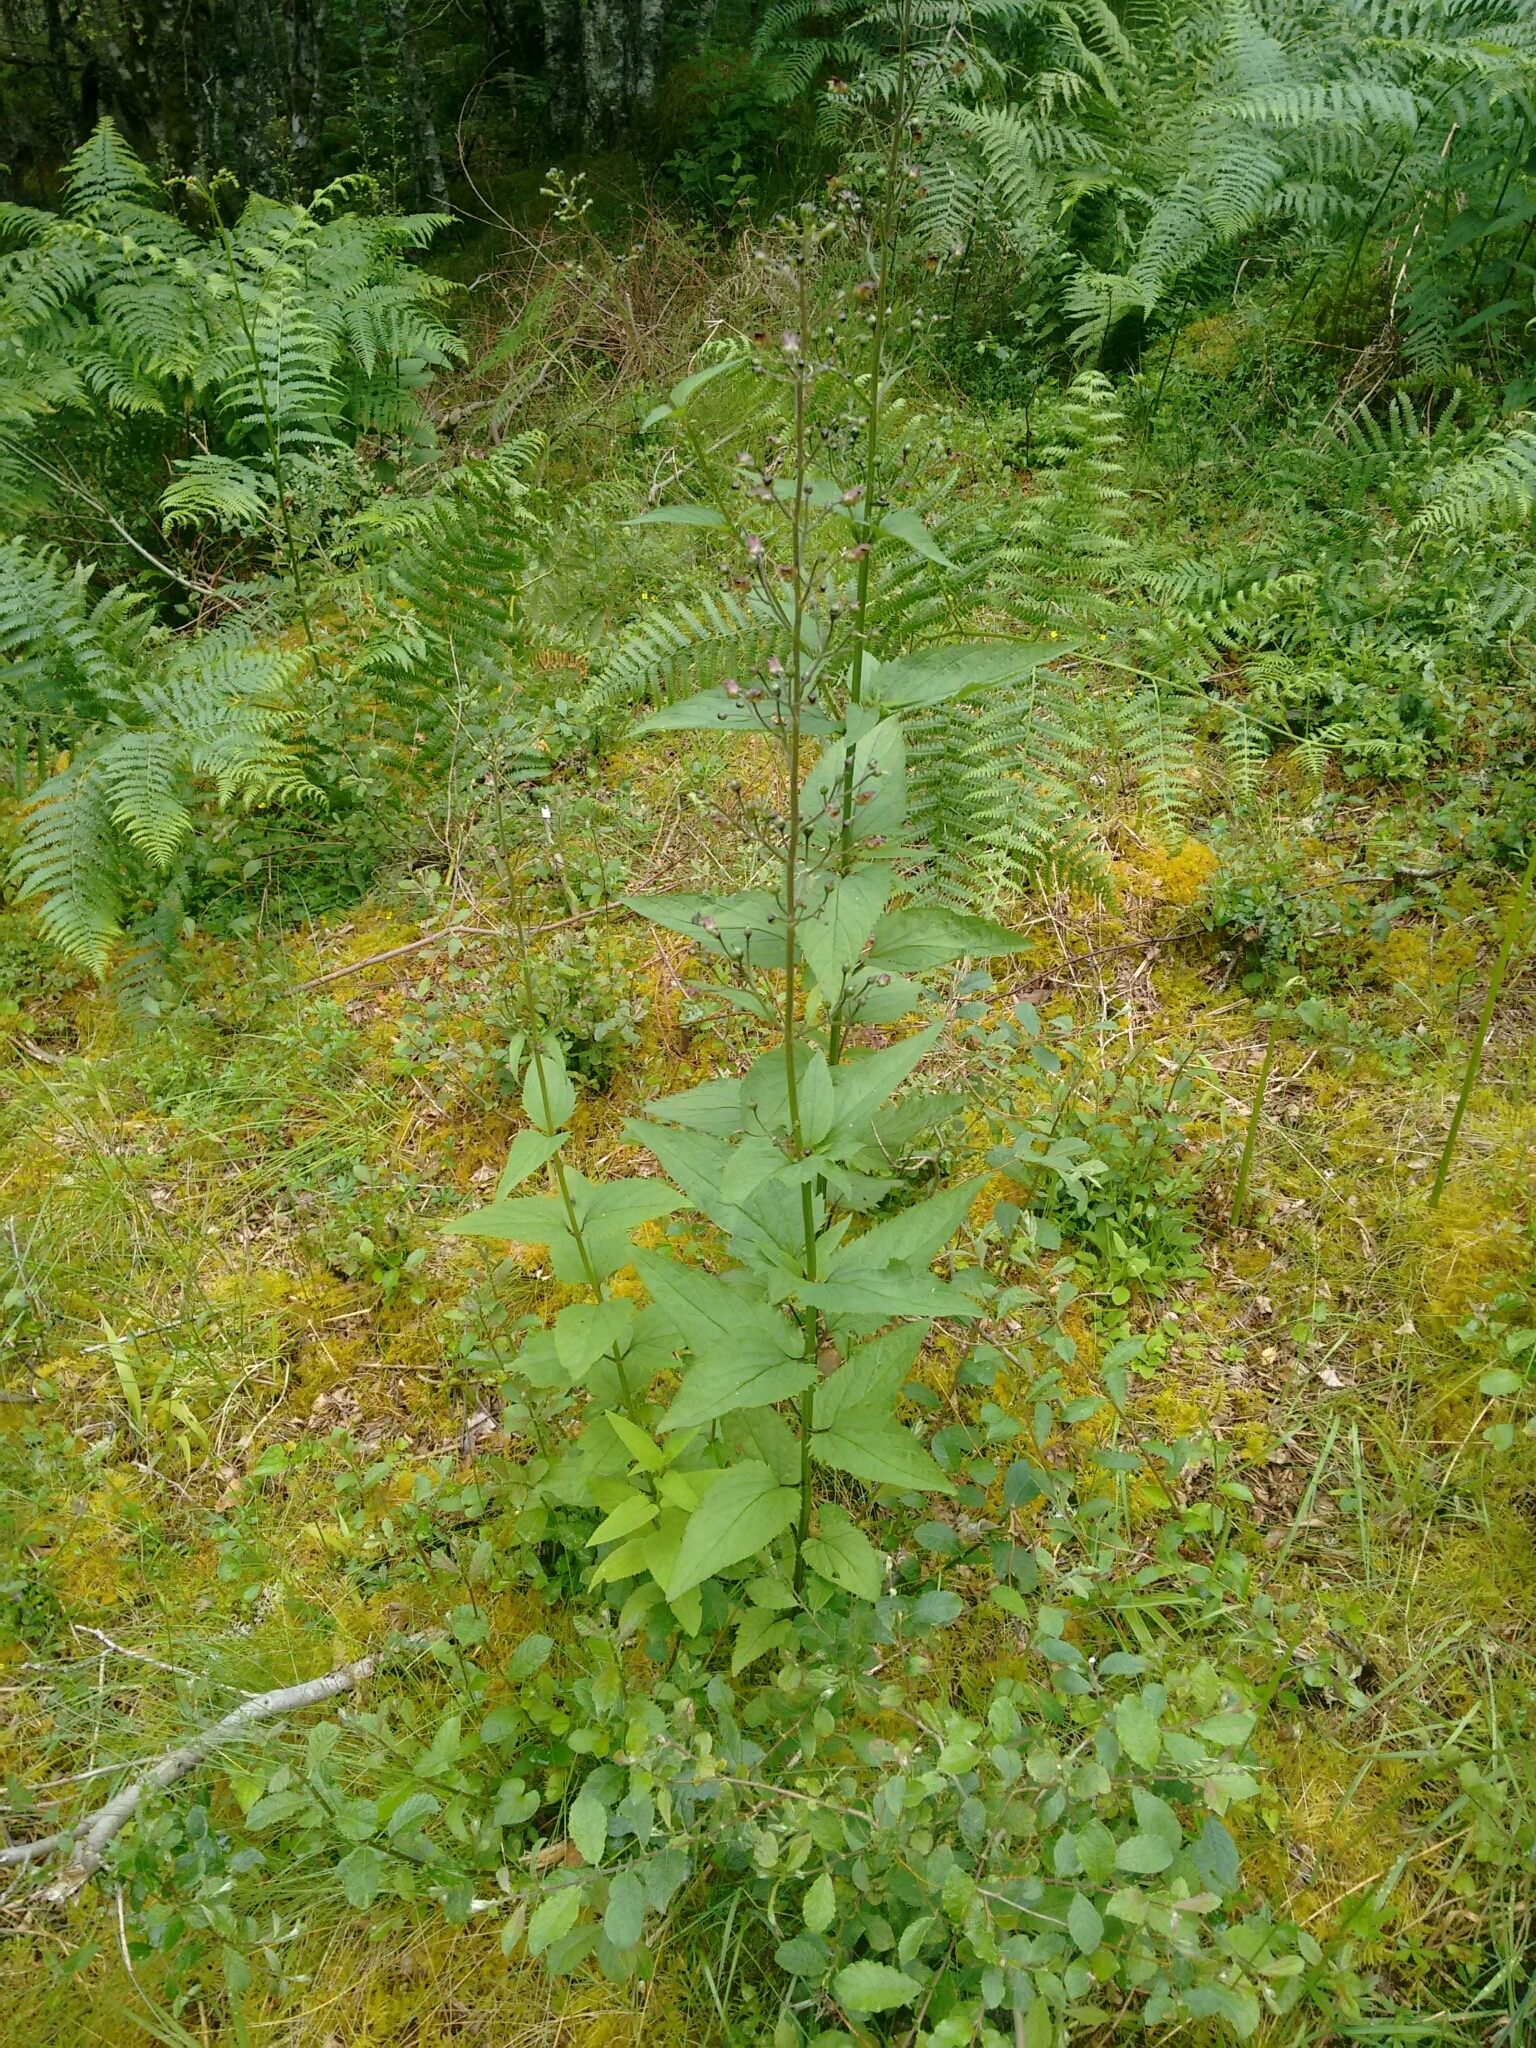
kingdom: Plantae
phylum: Tracheophyta
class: Magnoliopsida
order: Lamiales
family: Scrophulariaceae
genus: Scrophularia
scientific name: Scrophularia nodosa
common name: Common figwort
